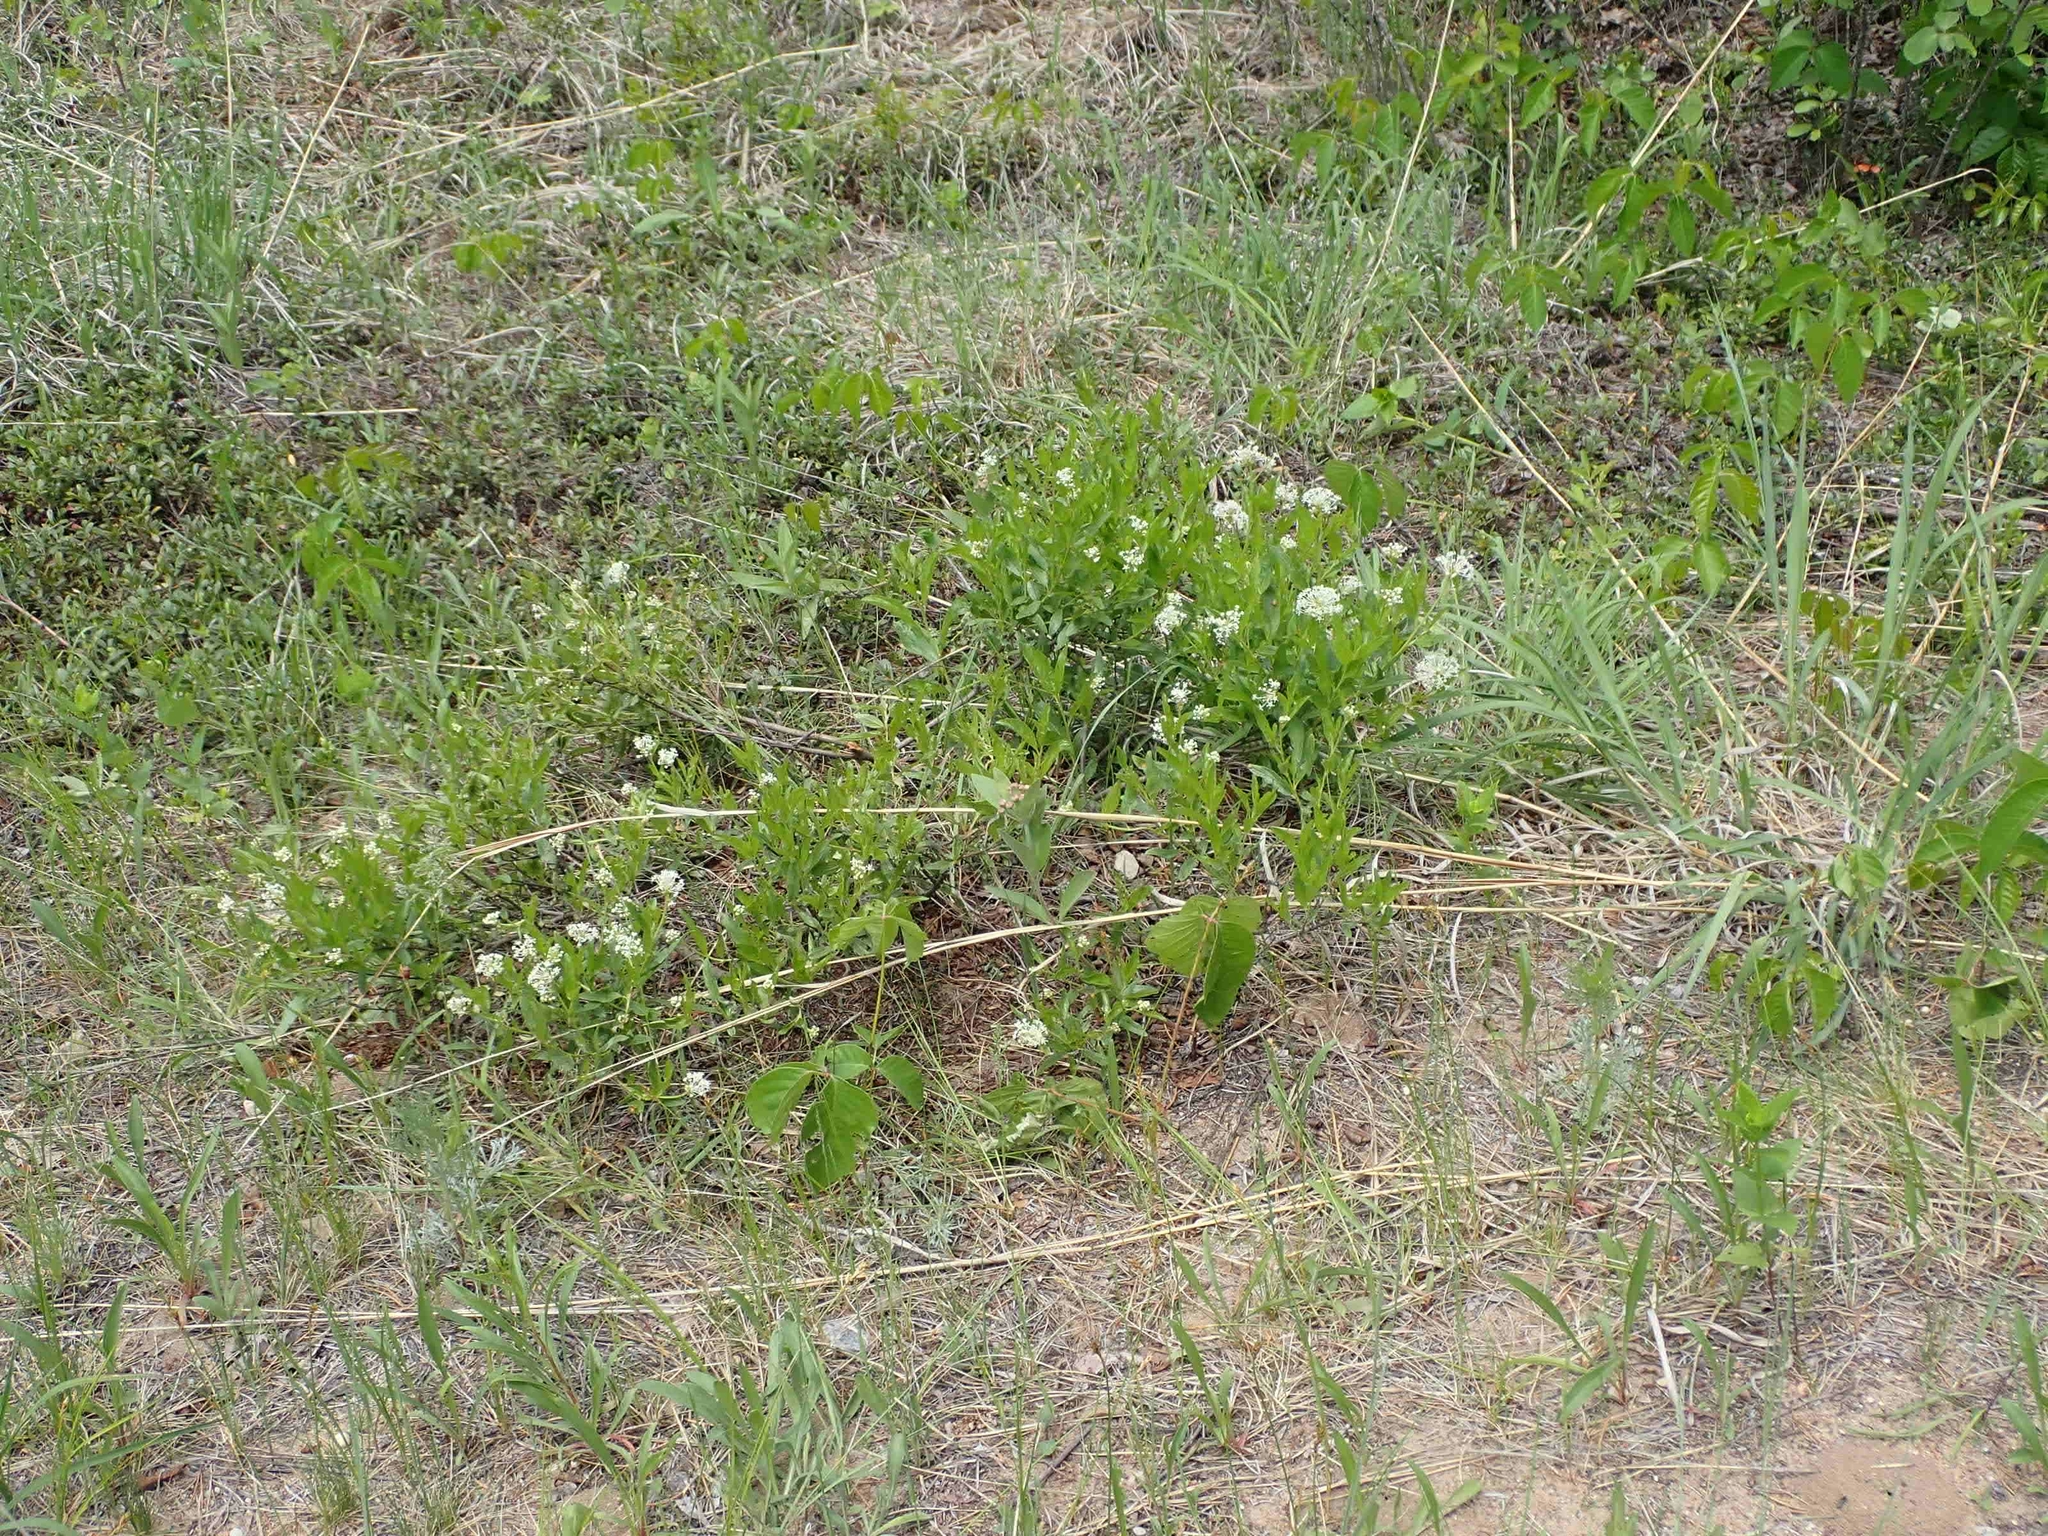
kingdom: Plantae
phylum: Tracheophyta
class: Magnoliopsida
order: Rosales
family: Rhamnaceae
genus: Ceanothus
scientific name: Ceanothus herbaceus
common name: Inland ceanothus
